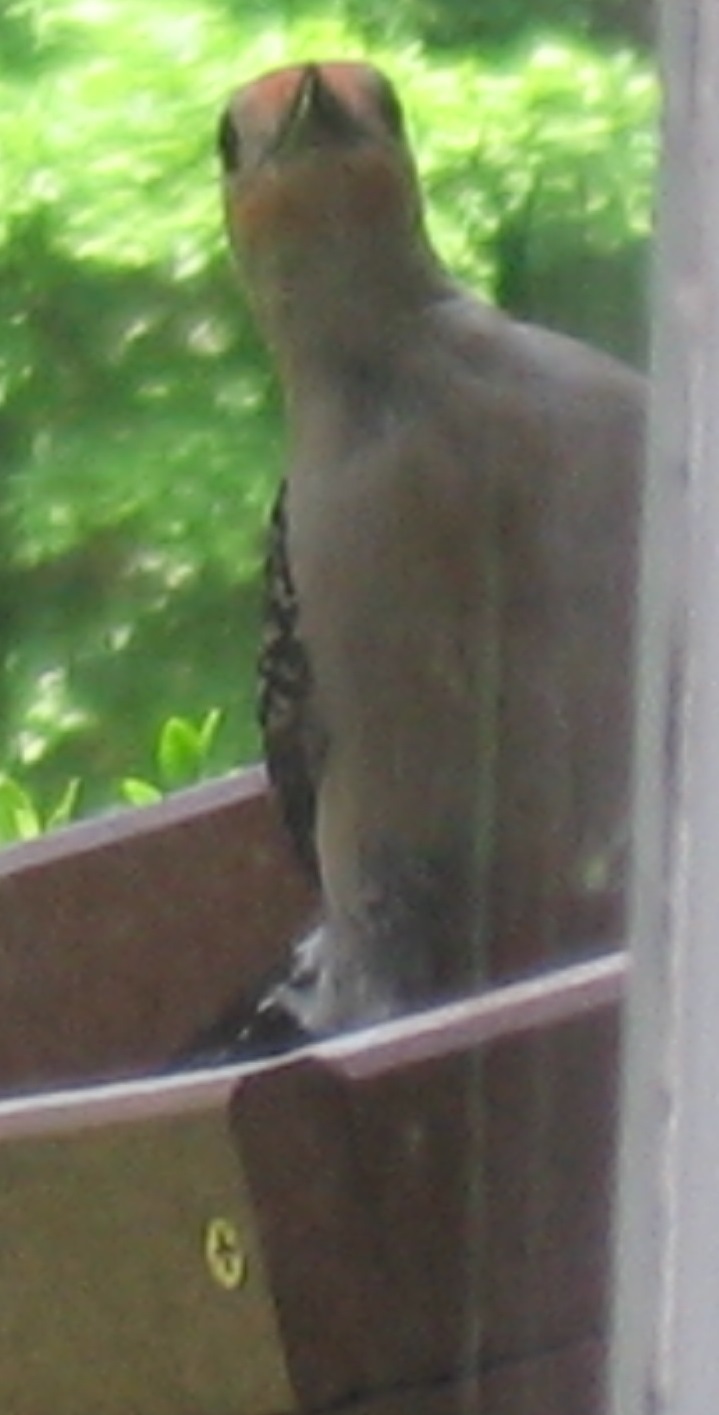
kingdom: Animalia
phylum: Chordata
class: Aves
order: Piciformes
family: Picidae
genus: Melanerpes
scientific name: Melanerpes carolinus
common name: Red-bellied woodpecker
